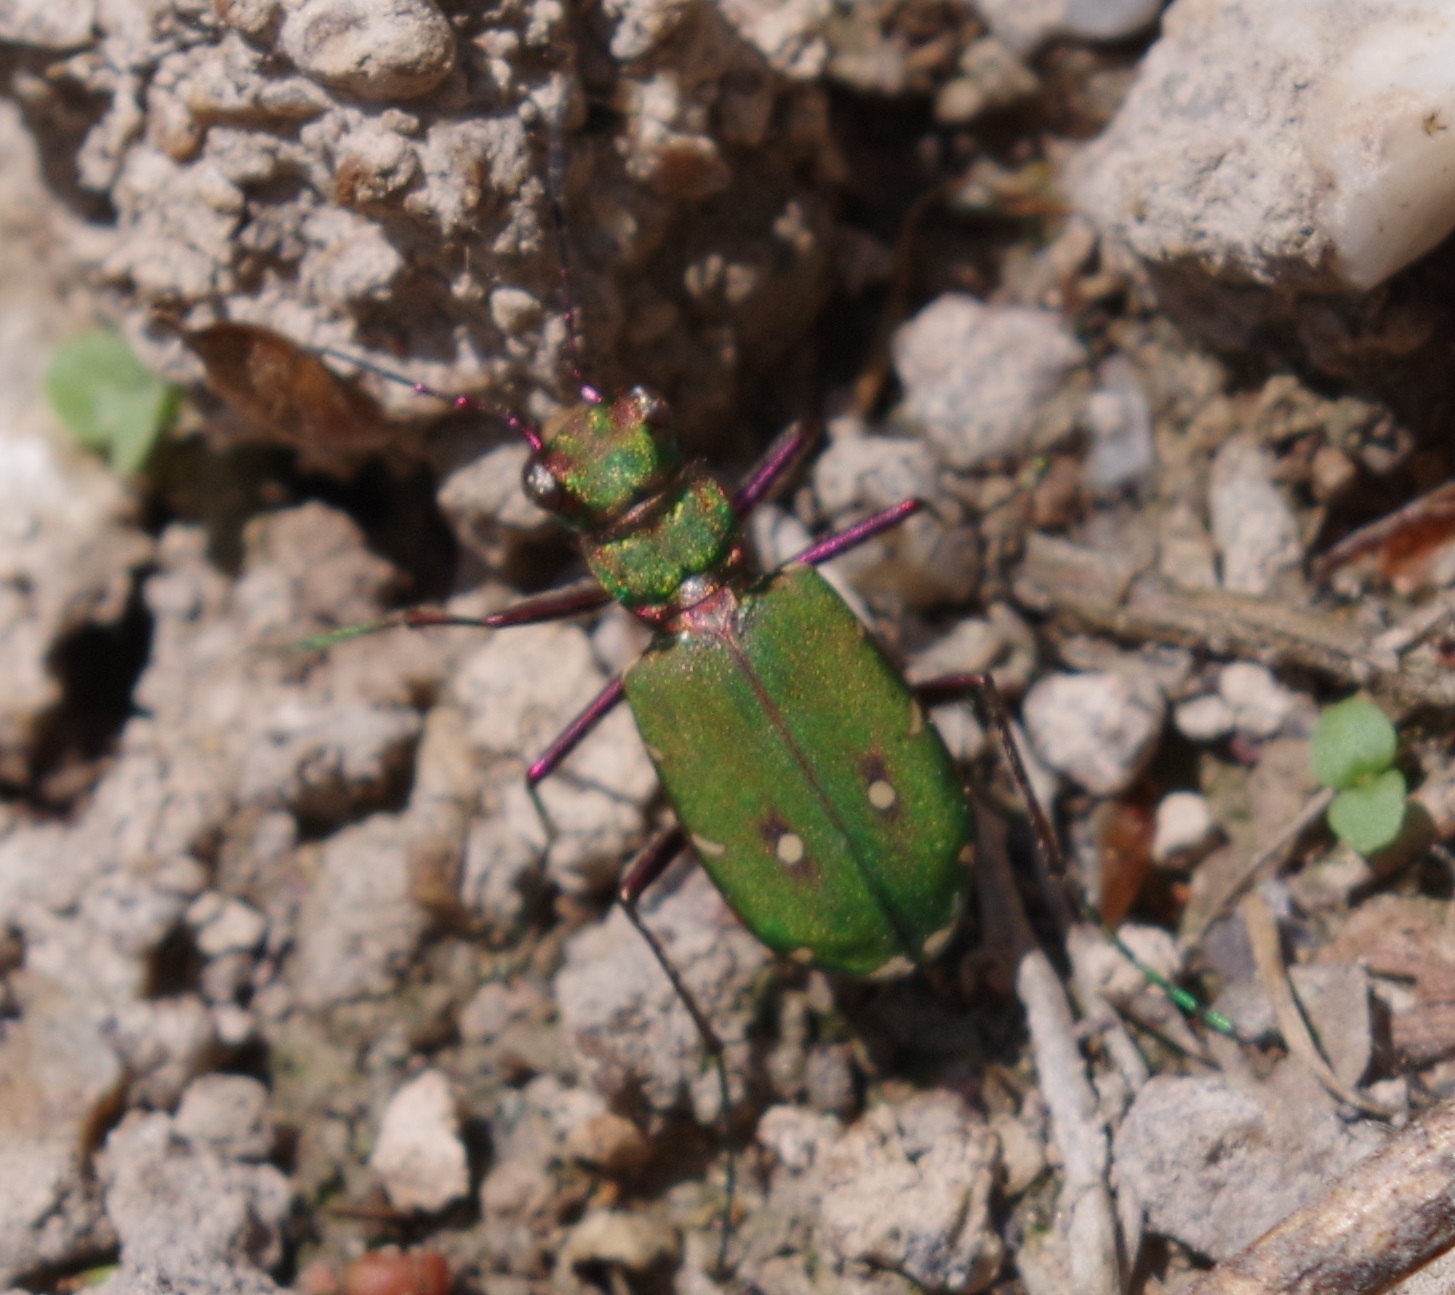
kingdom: Animalia
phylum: Arthropoda
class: Insecta
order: Coleoptera
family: Carabidae
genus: Cicindela
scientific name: Cicindela campestris
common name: Common tiger beetle
